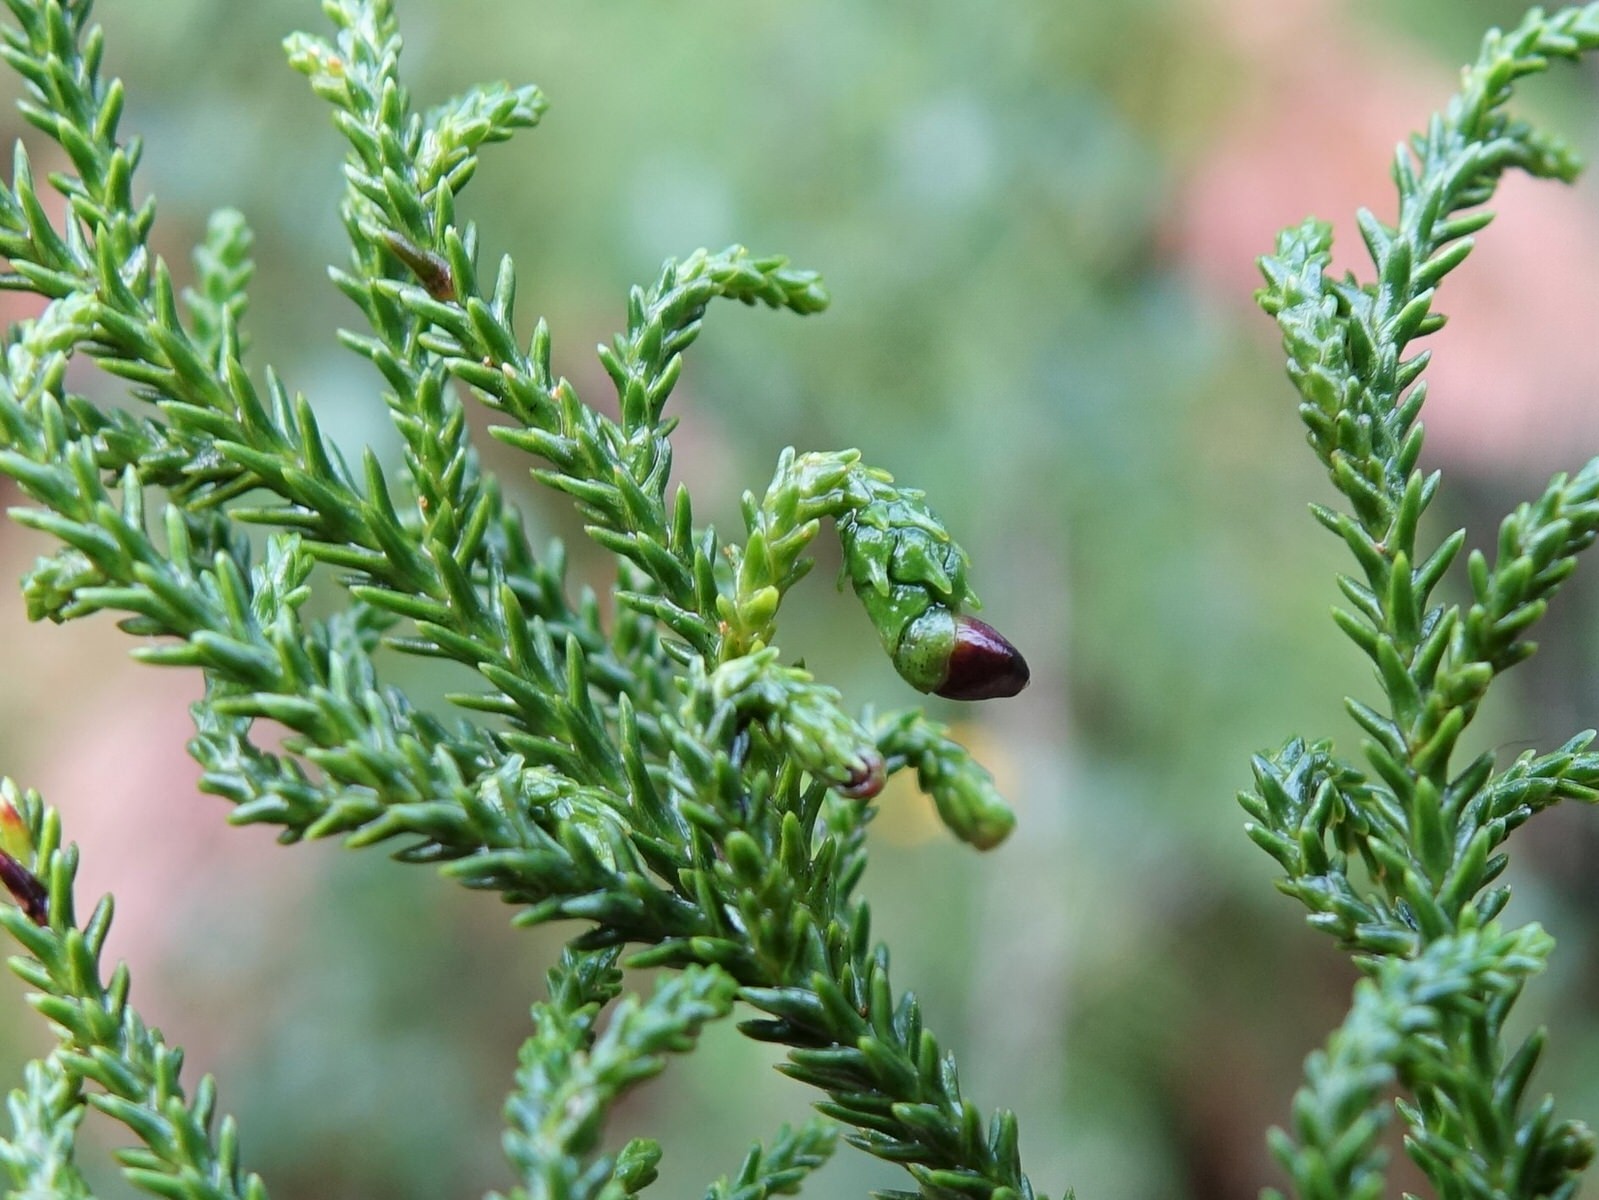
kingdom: Plantae
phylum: Tracheophyta
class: Pinopsida
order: Pinales
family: Podocarpaceae
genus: Dacrydium
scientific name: Dacrydium cupressinum
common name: Red pine
